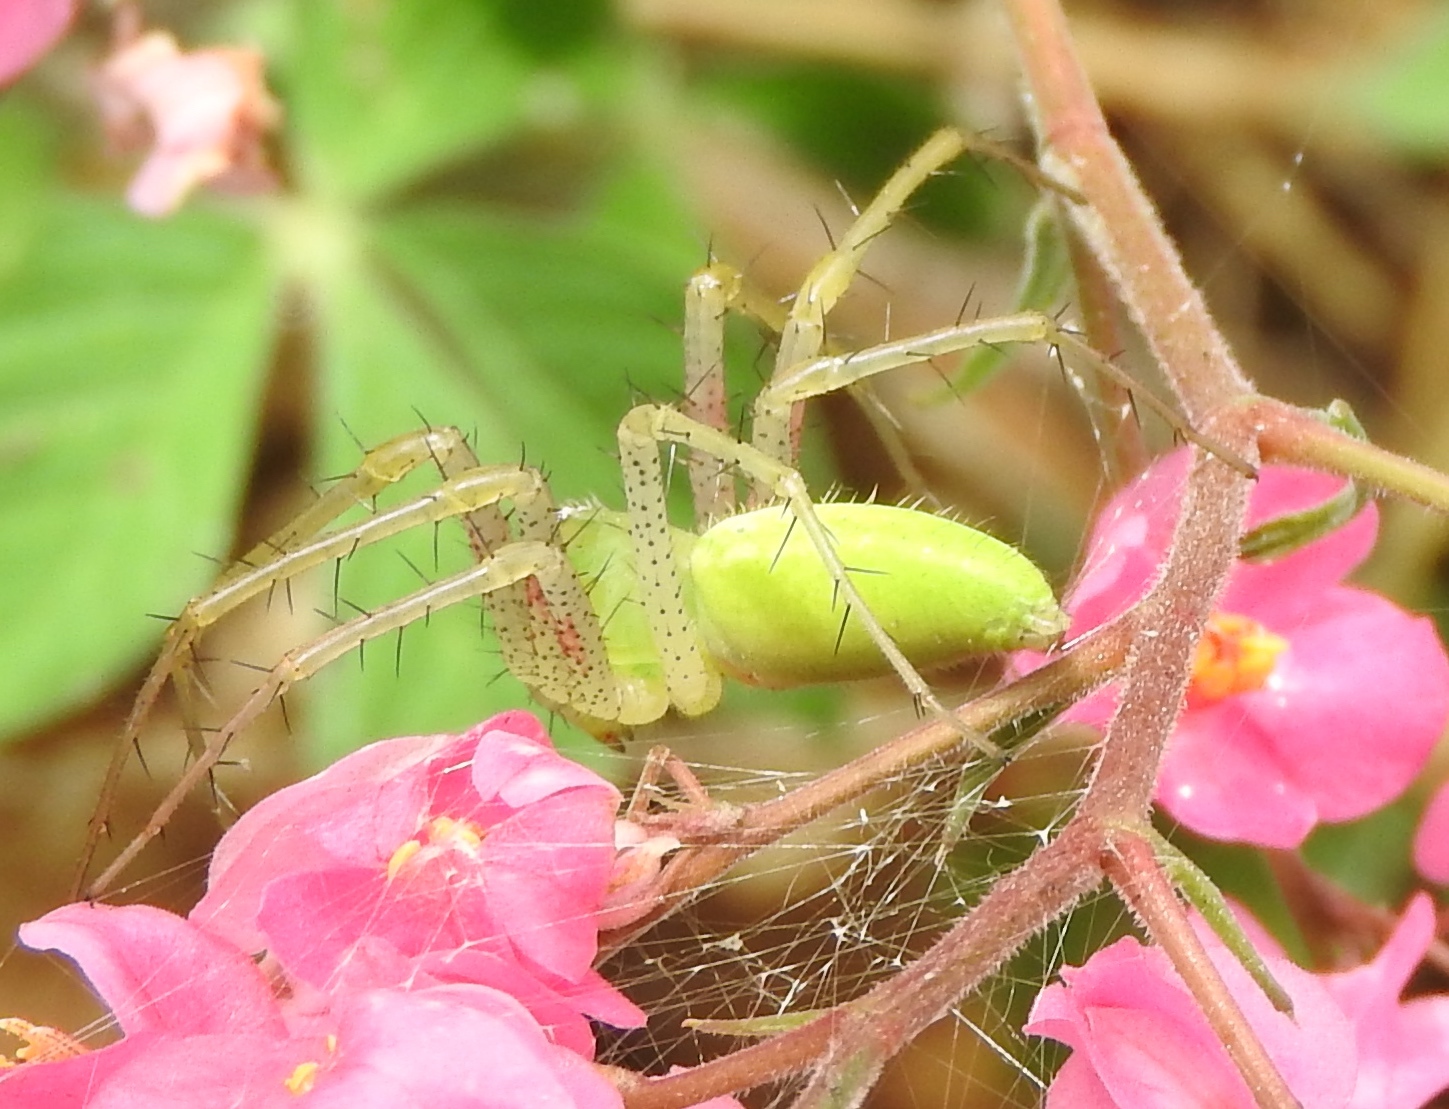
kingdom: Animalia
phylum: Arthropoda
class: Arachnida
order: Araneae
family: Oxyopidae
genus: Peucetia
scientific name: Peucetia
